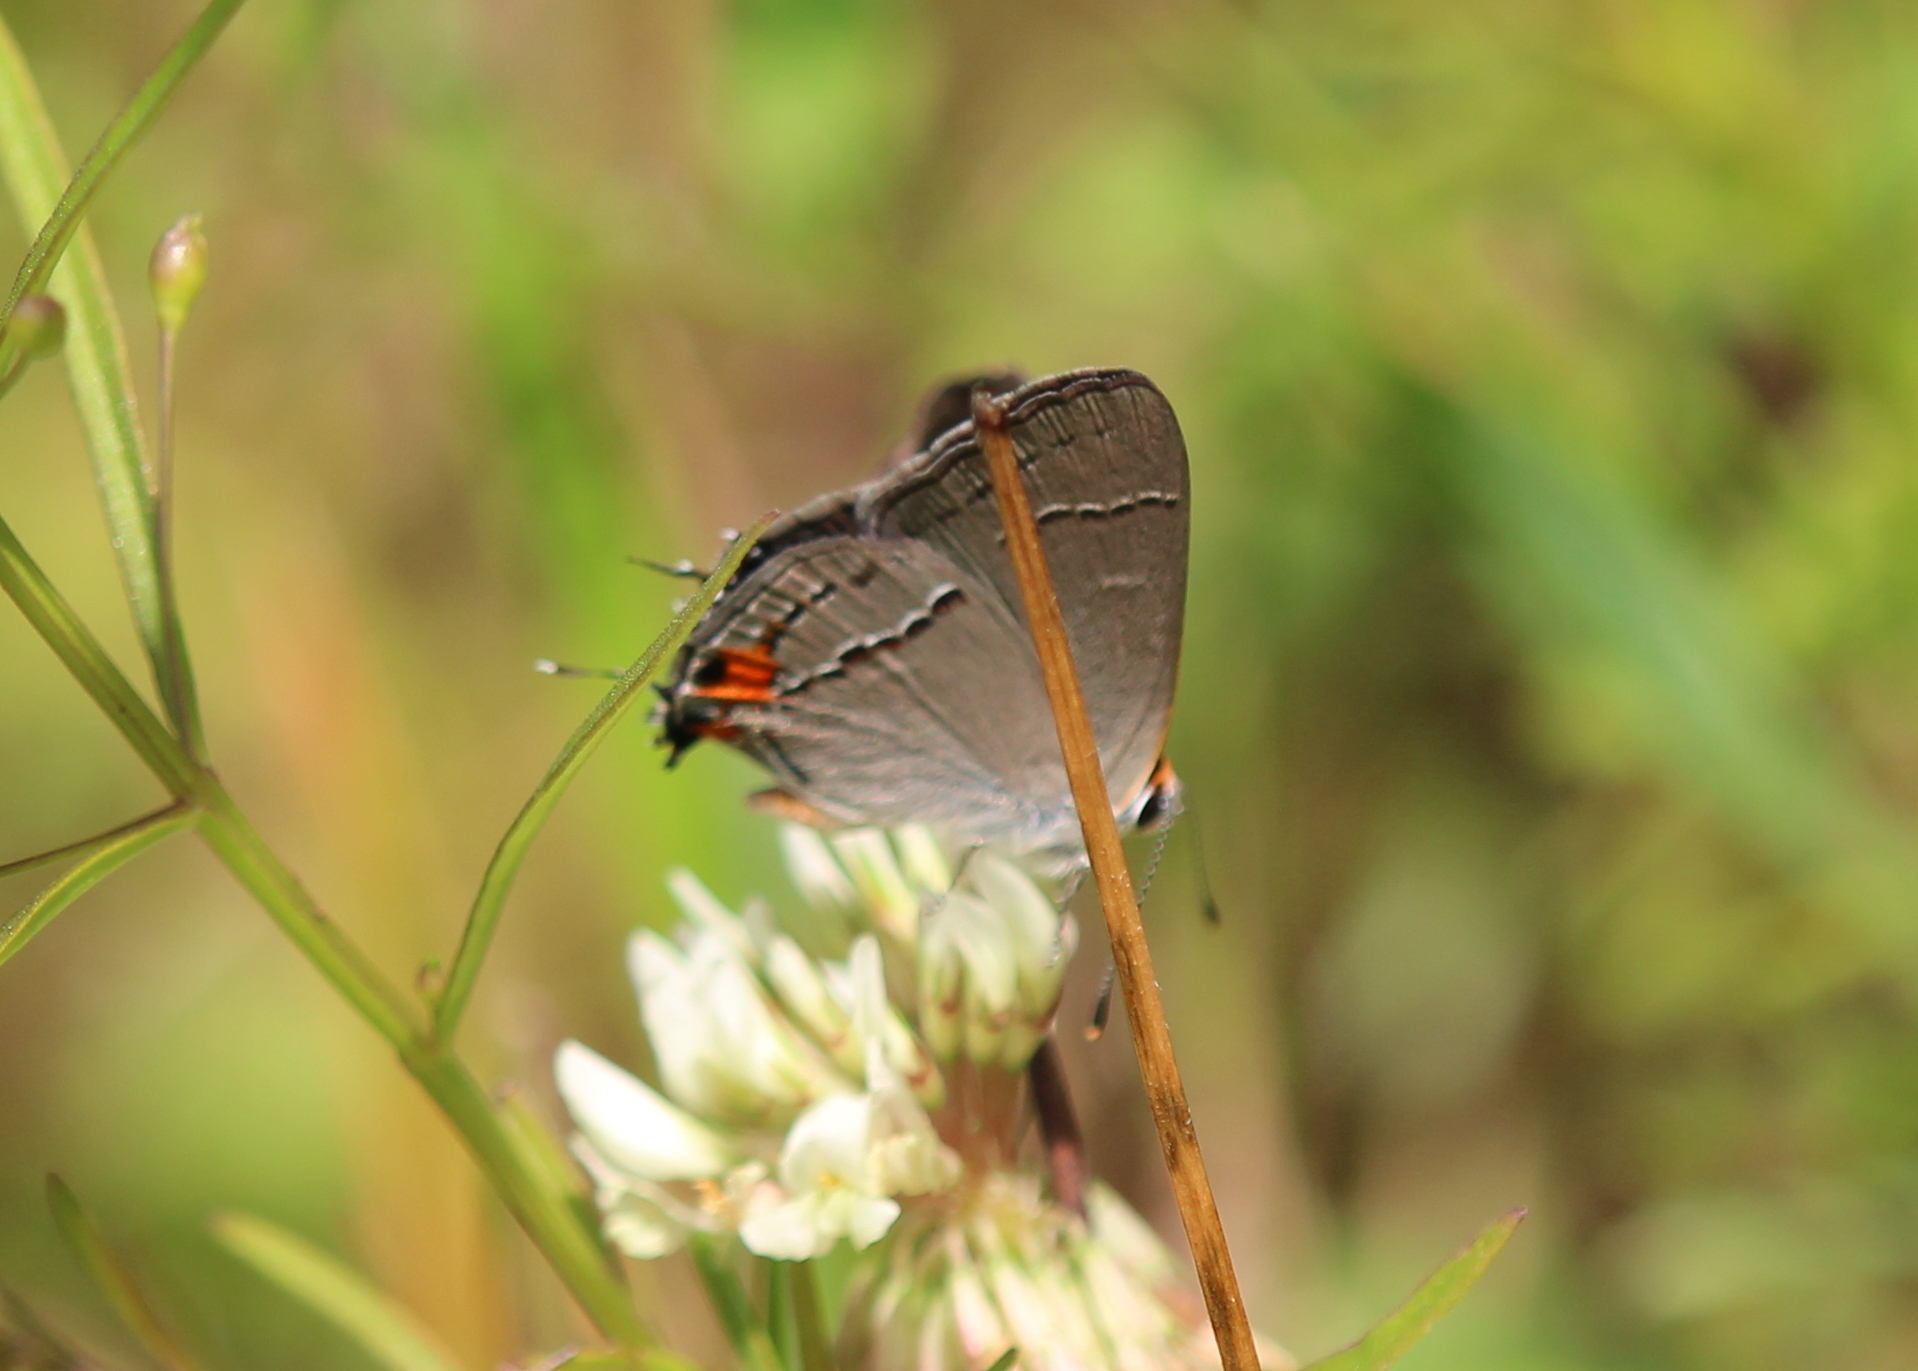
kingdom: Animalia
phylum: Arthropoda
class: Insecta
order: Lepidoptera
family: Lycaenidae
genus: Strymon
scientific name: Strymon melinus
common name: Gray hairstreak
